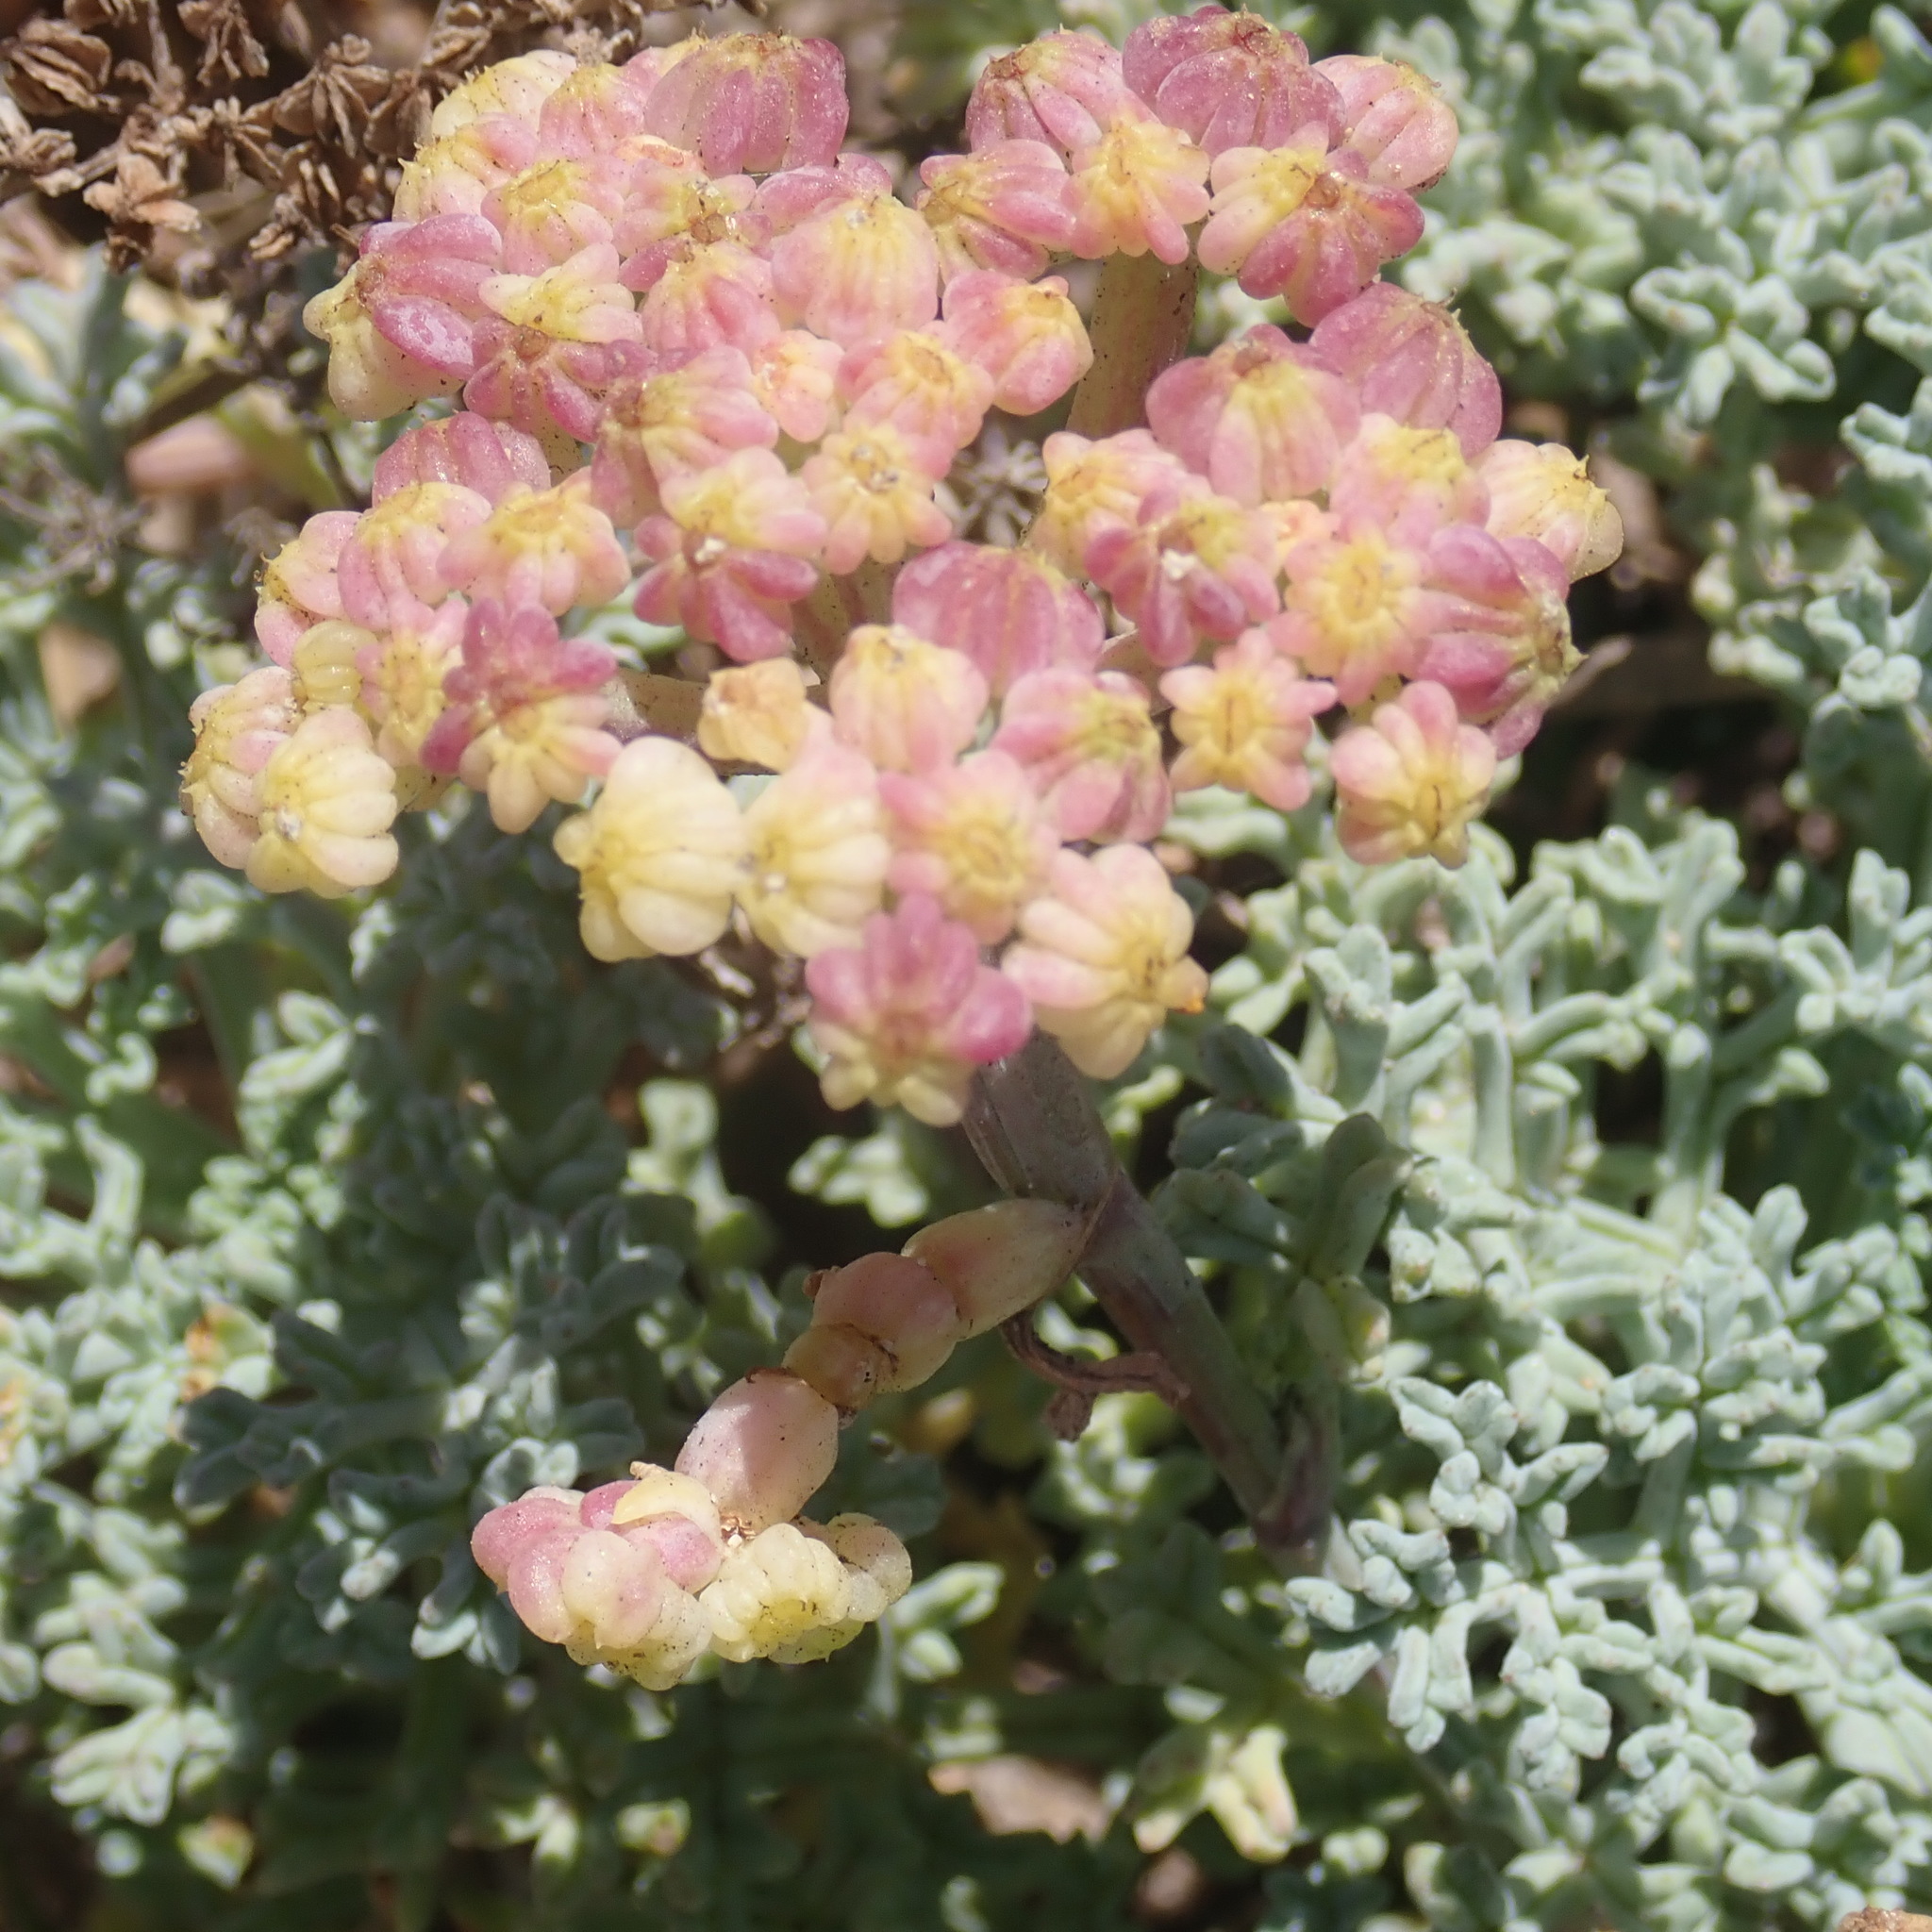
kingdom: Plantae
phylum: Tracheophyta
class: Magnoliopsida
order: Apiales
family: Apiaceae
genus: Dasispermum
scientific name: Dasispermum suffruticosum
